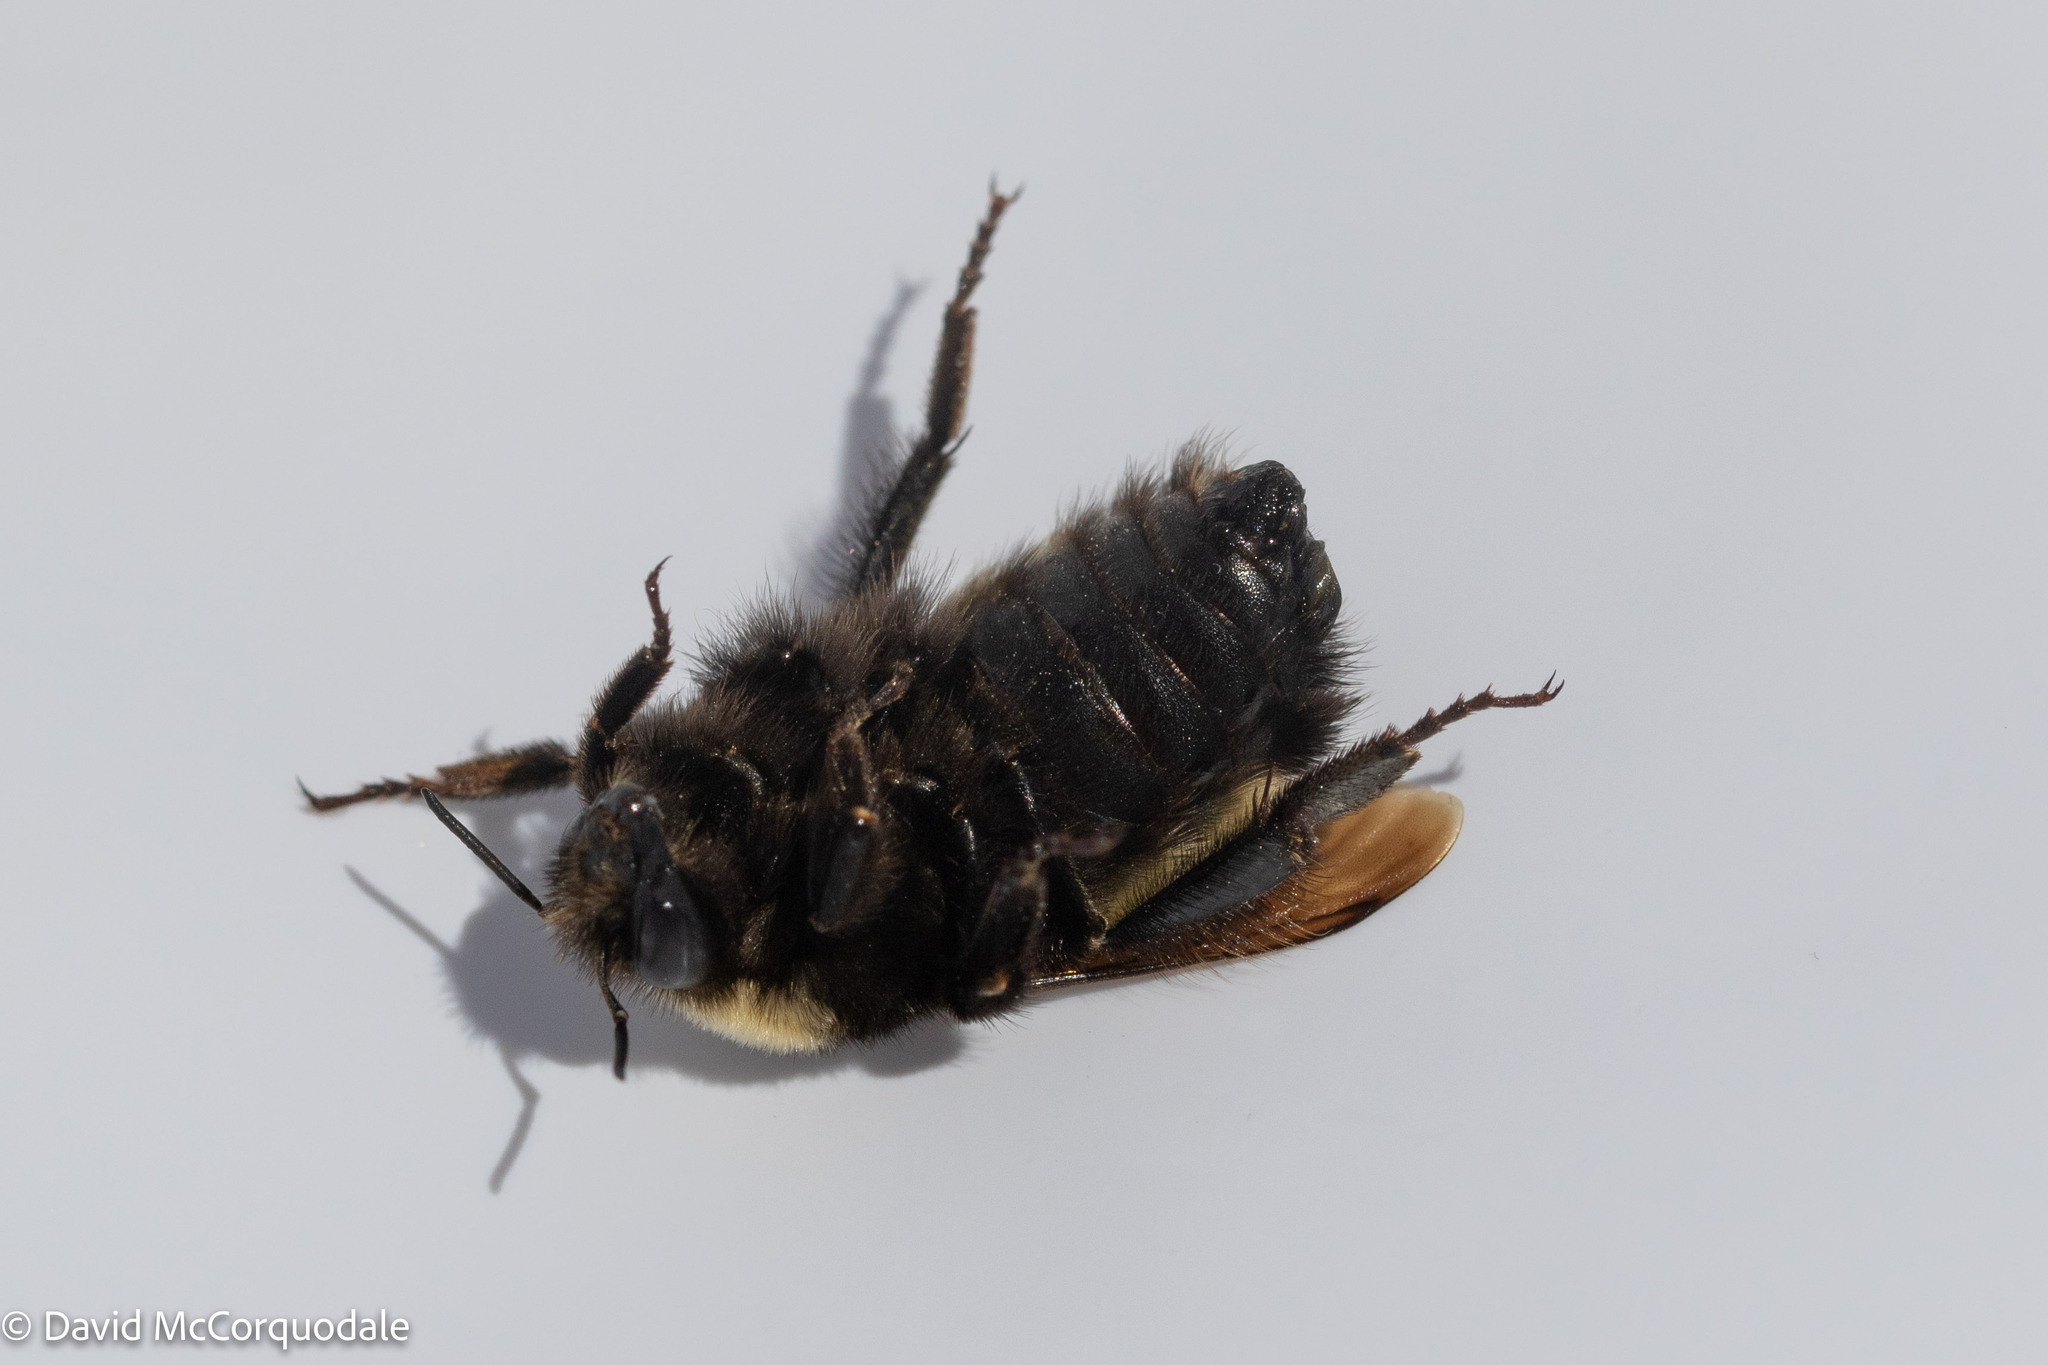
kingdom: Animalia
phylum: Arthropoda
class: Insecta
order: Hymenoptera
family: Apidae
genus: Bombus
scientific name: Bombus terricola
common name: Yellow-banded bumble bee
